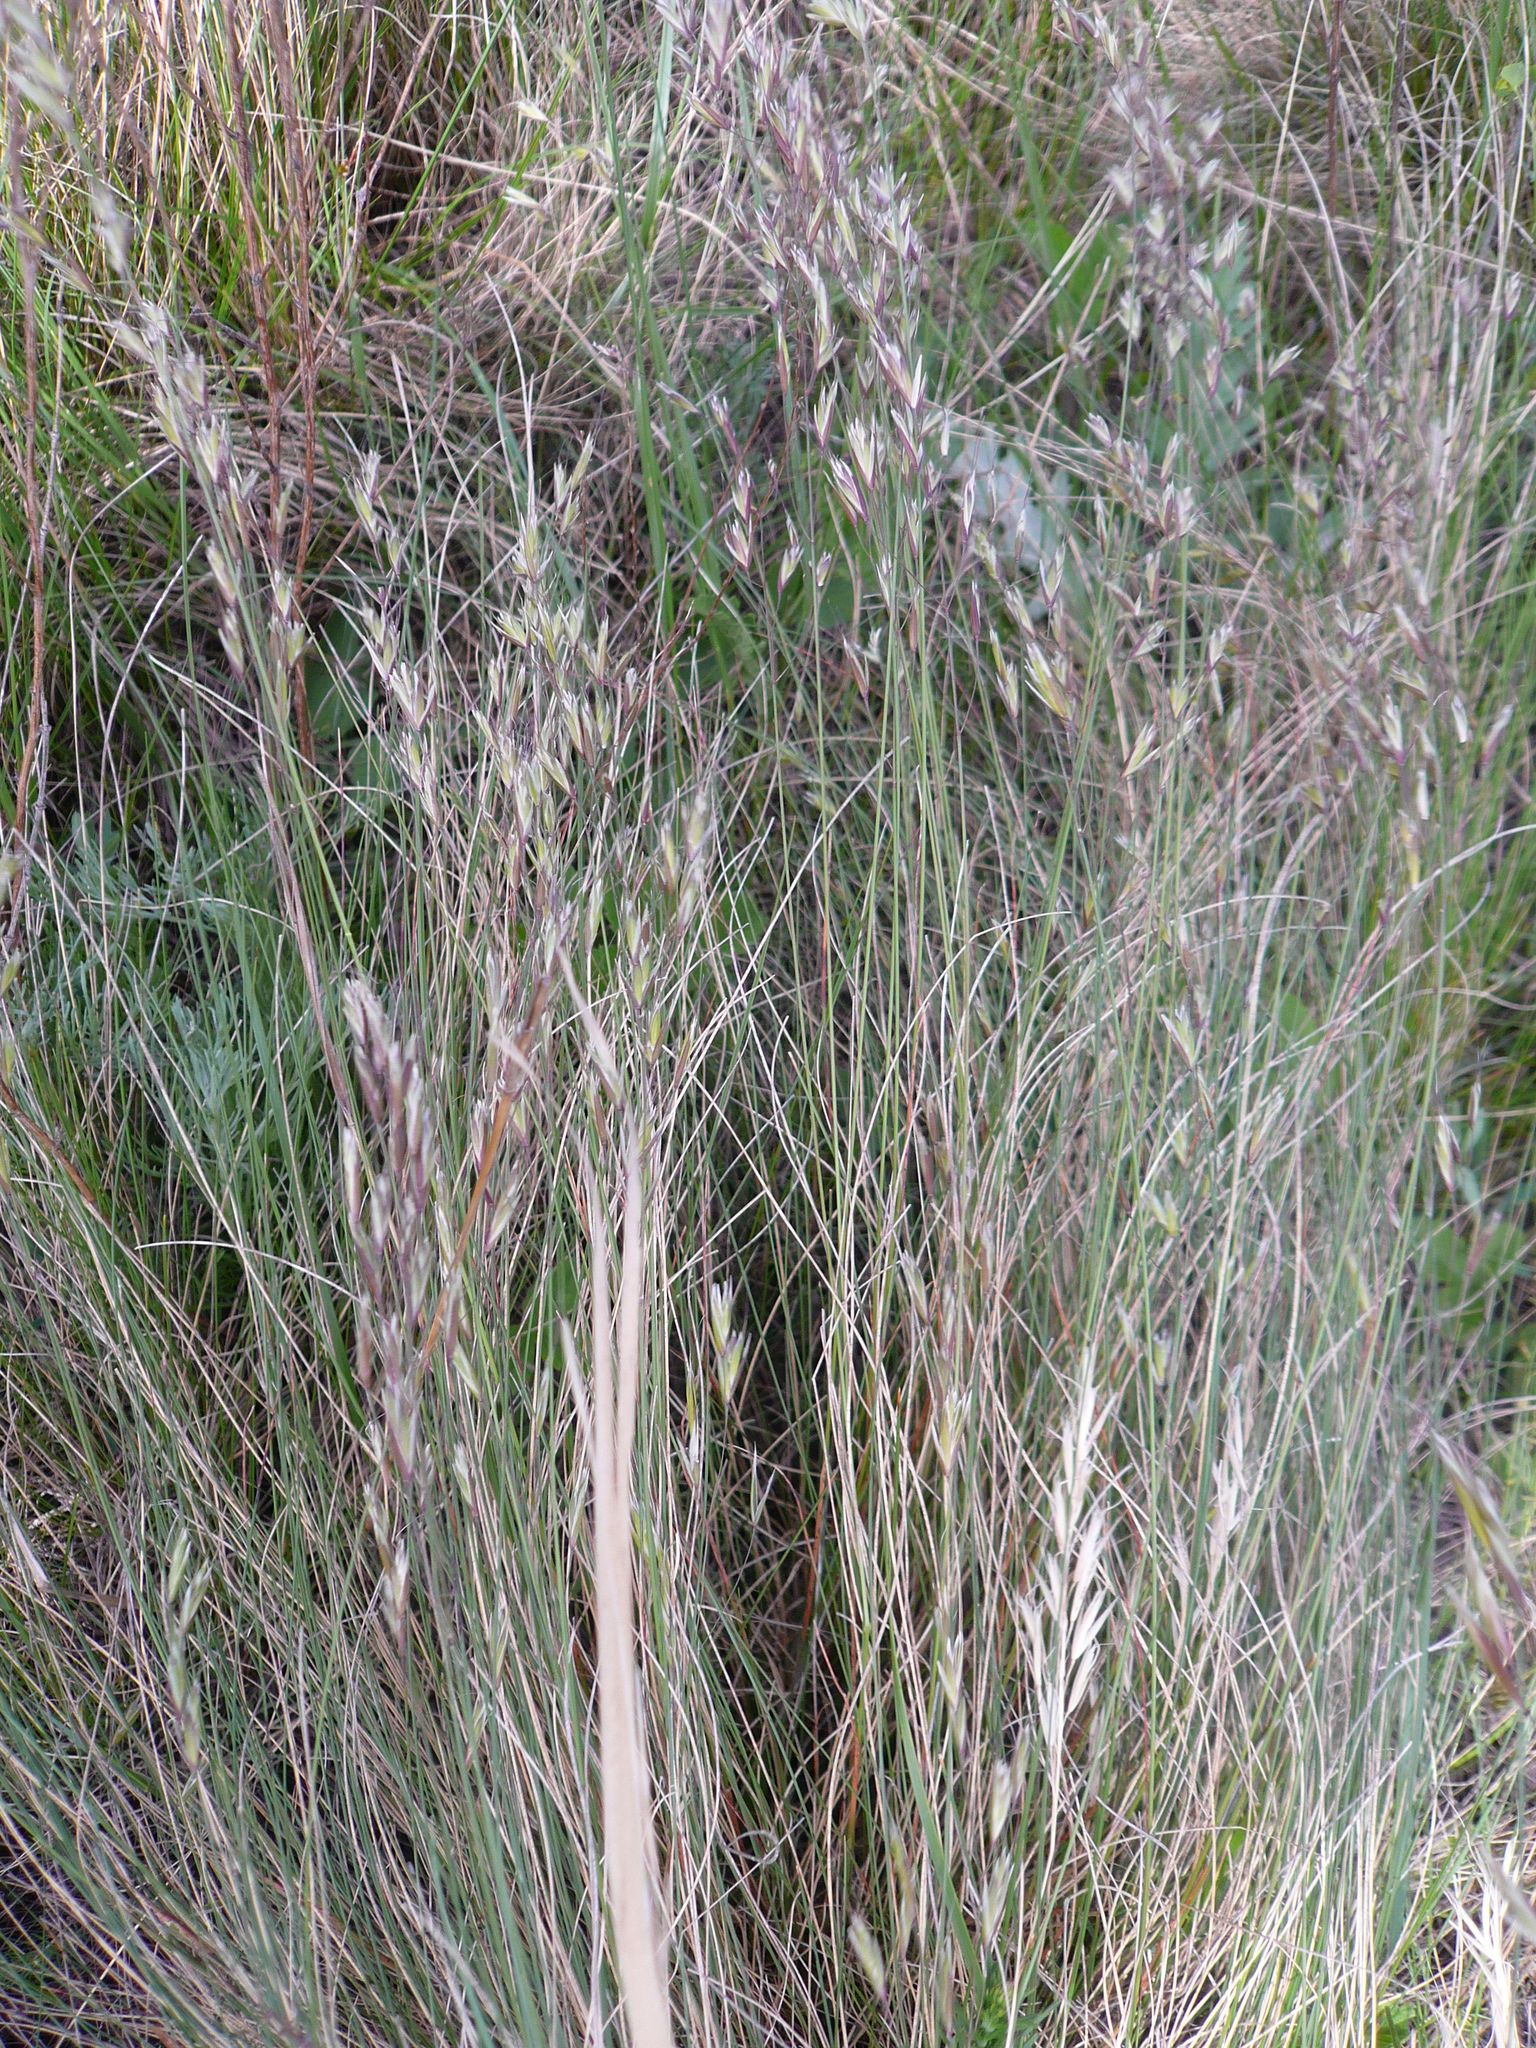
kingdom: Plantae
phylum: Tracheophyta
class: Liliopsida
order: Poales
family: Poaceae
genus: Helictotrichon
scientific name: Helictotrichon desertorum
